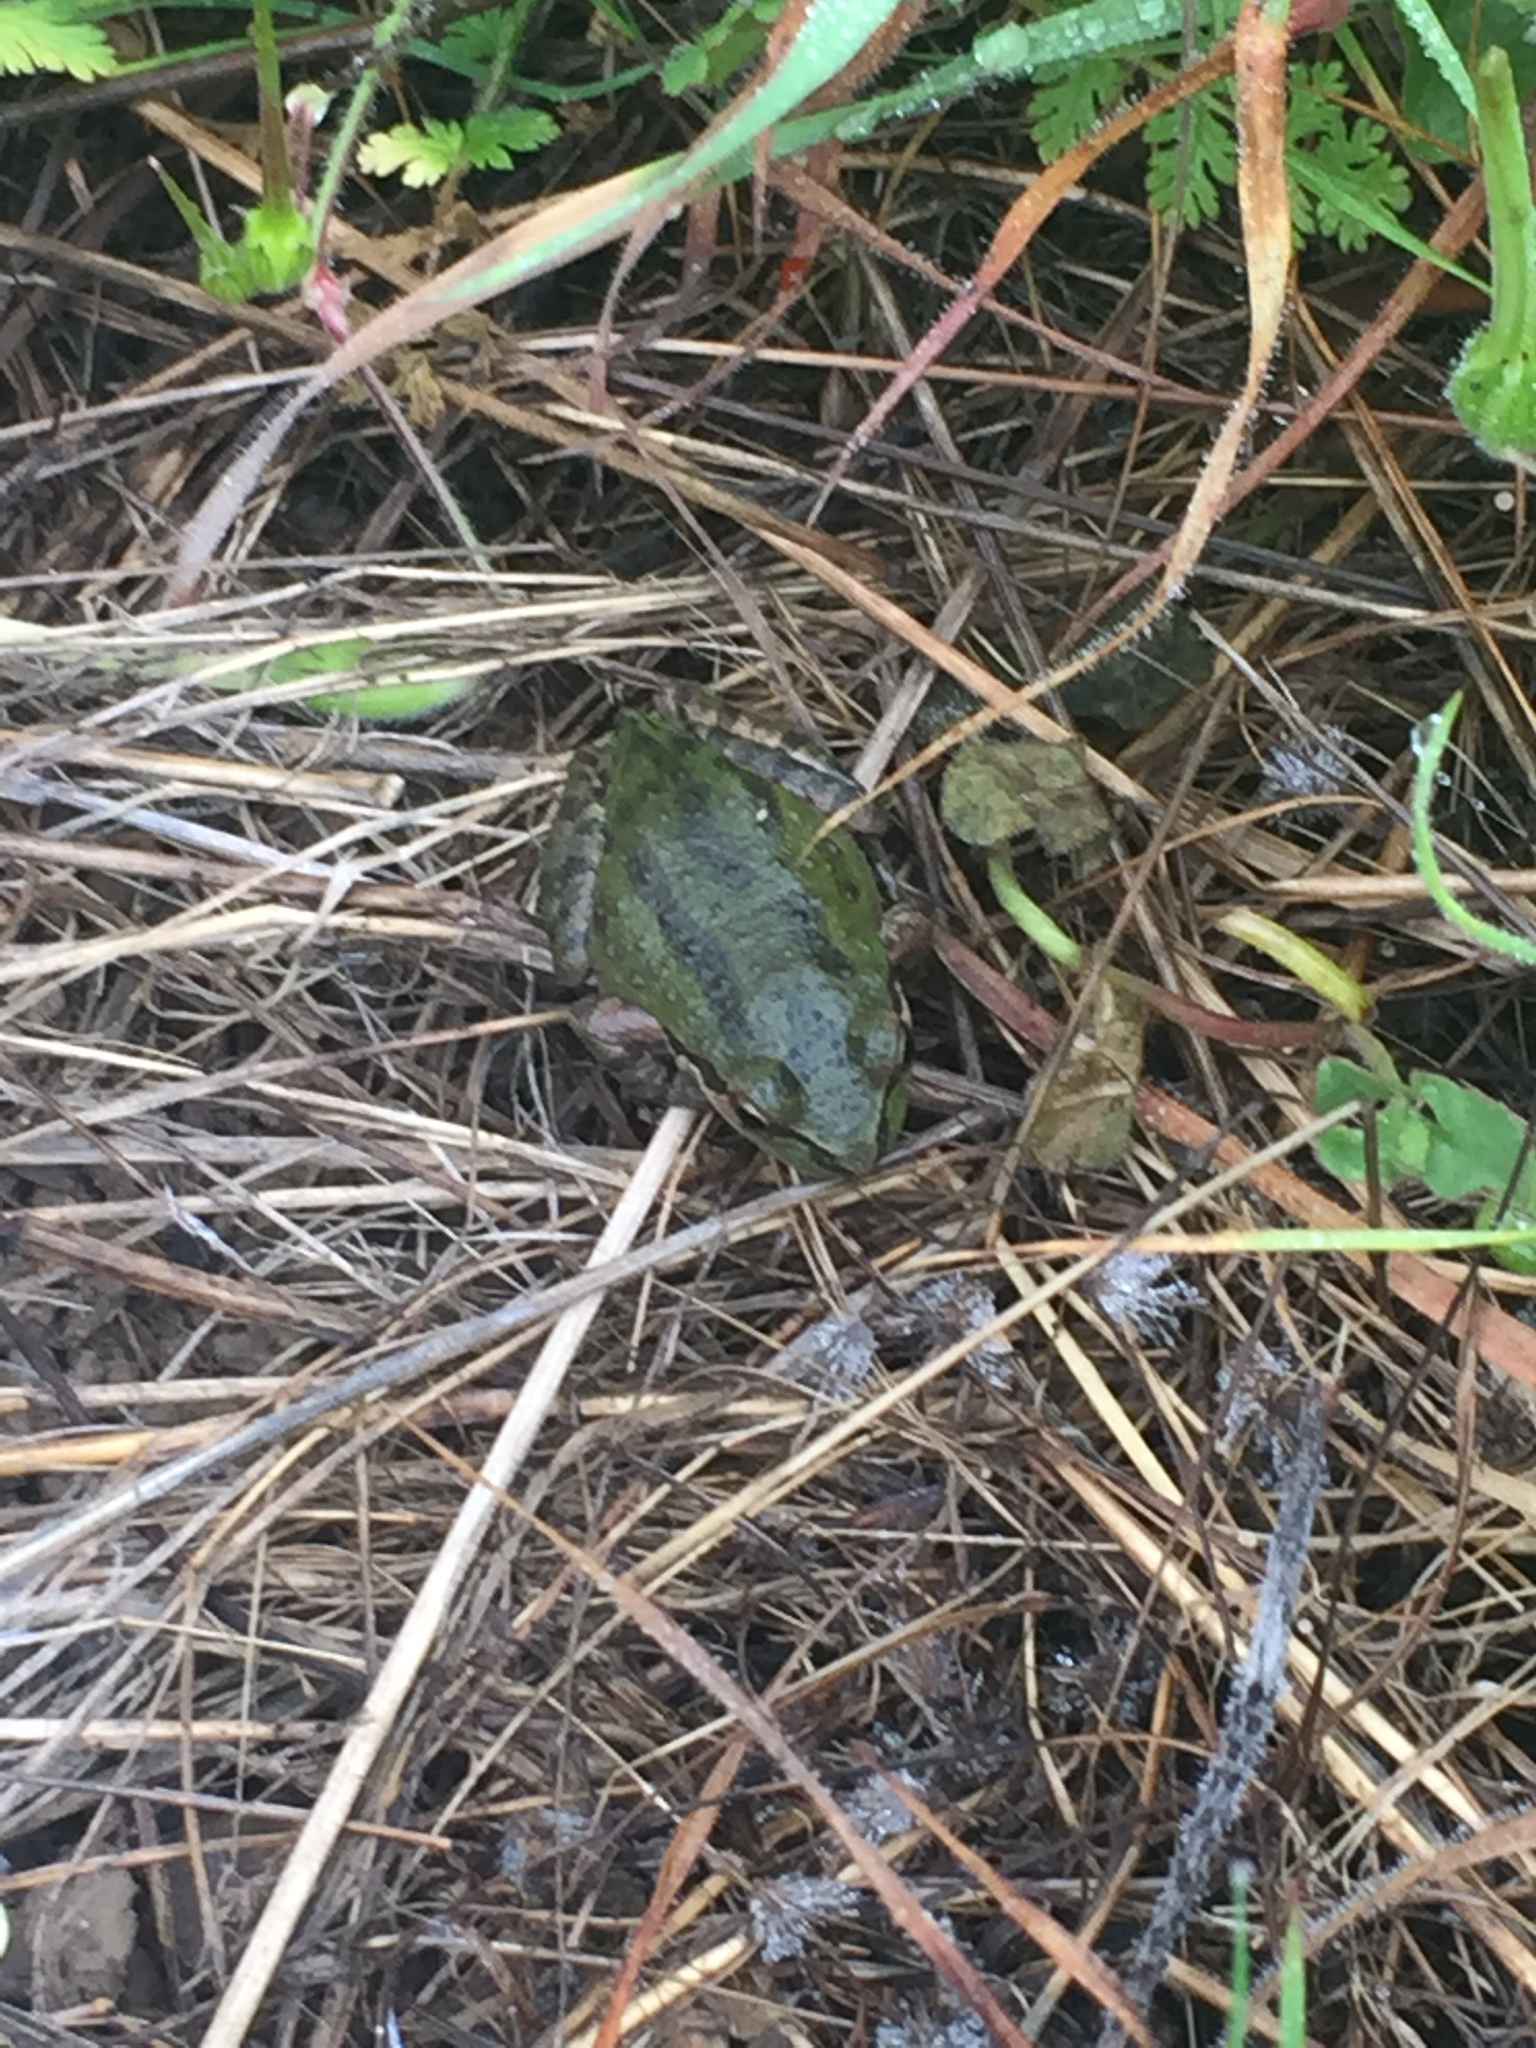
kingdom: Animalia
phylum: Chordata
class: Amphibia
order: Anura
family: Hylidae
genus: Pseudacris
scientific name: Pseudacris regilla
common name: Pacific chorus frog
